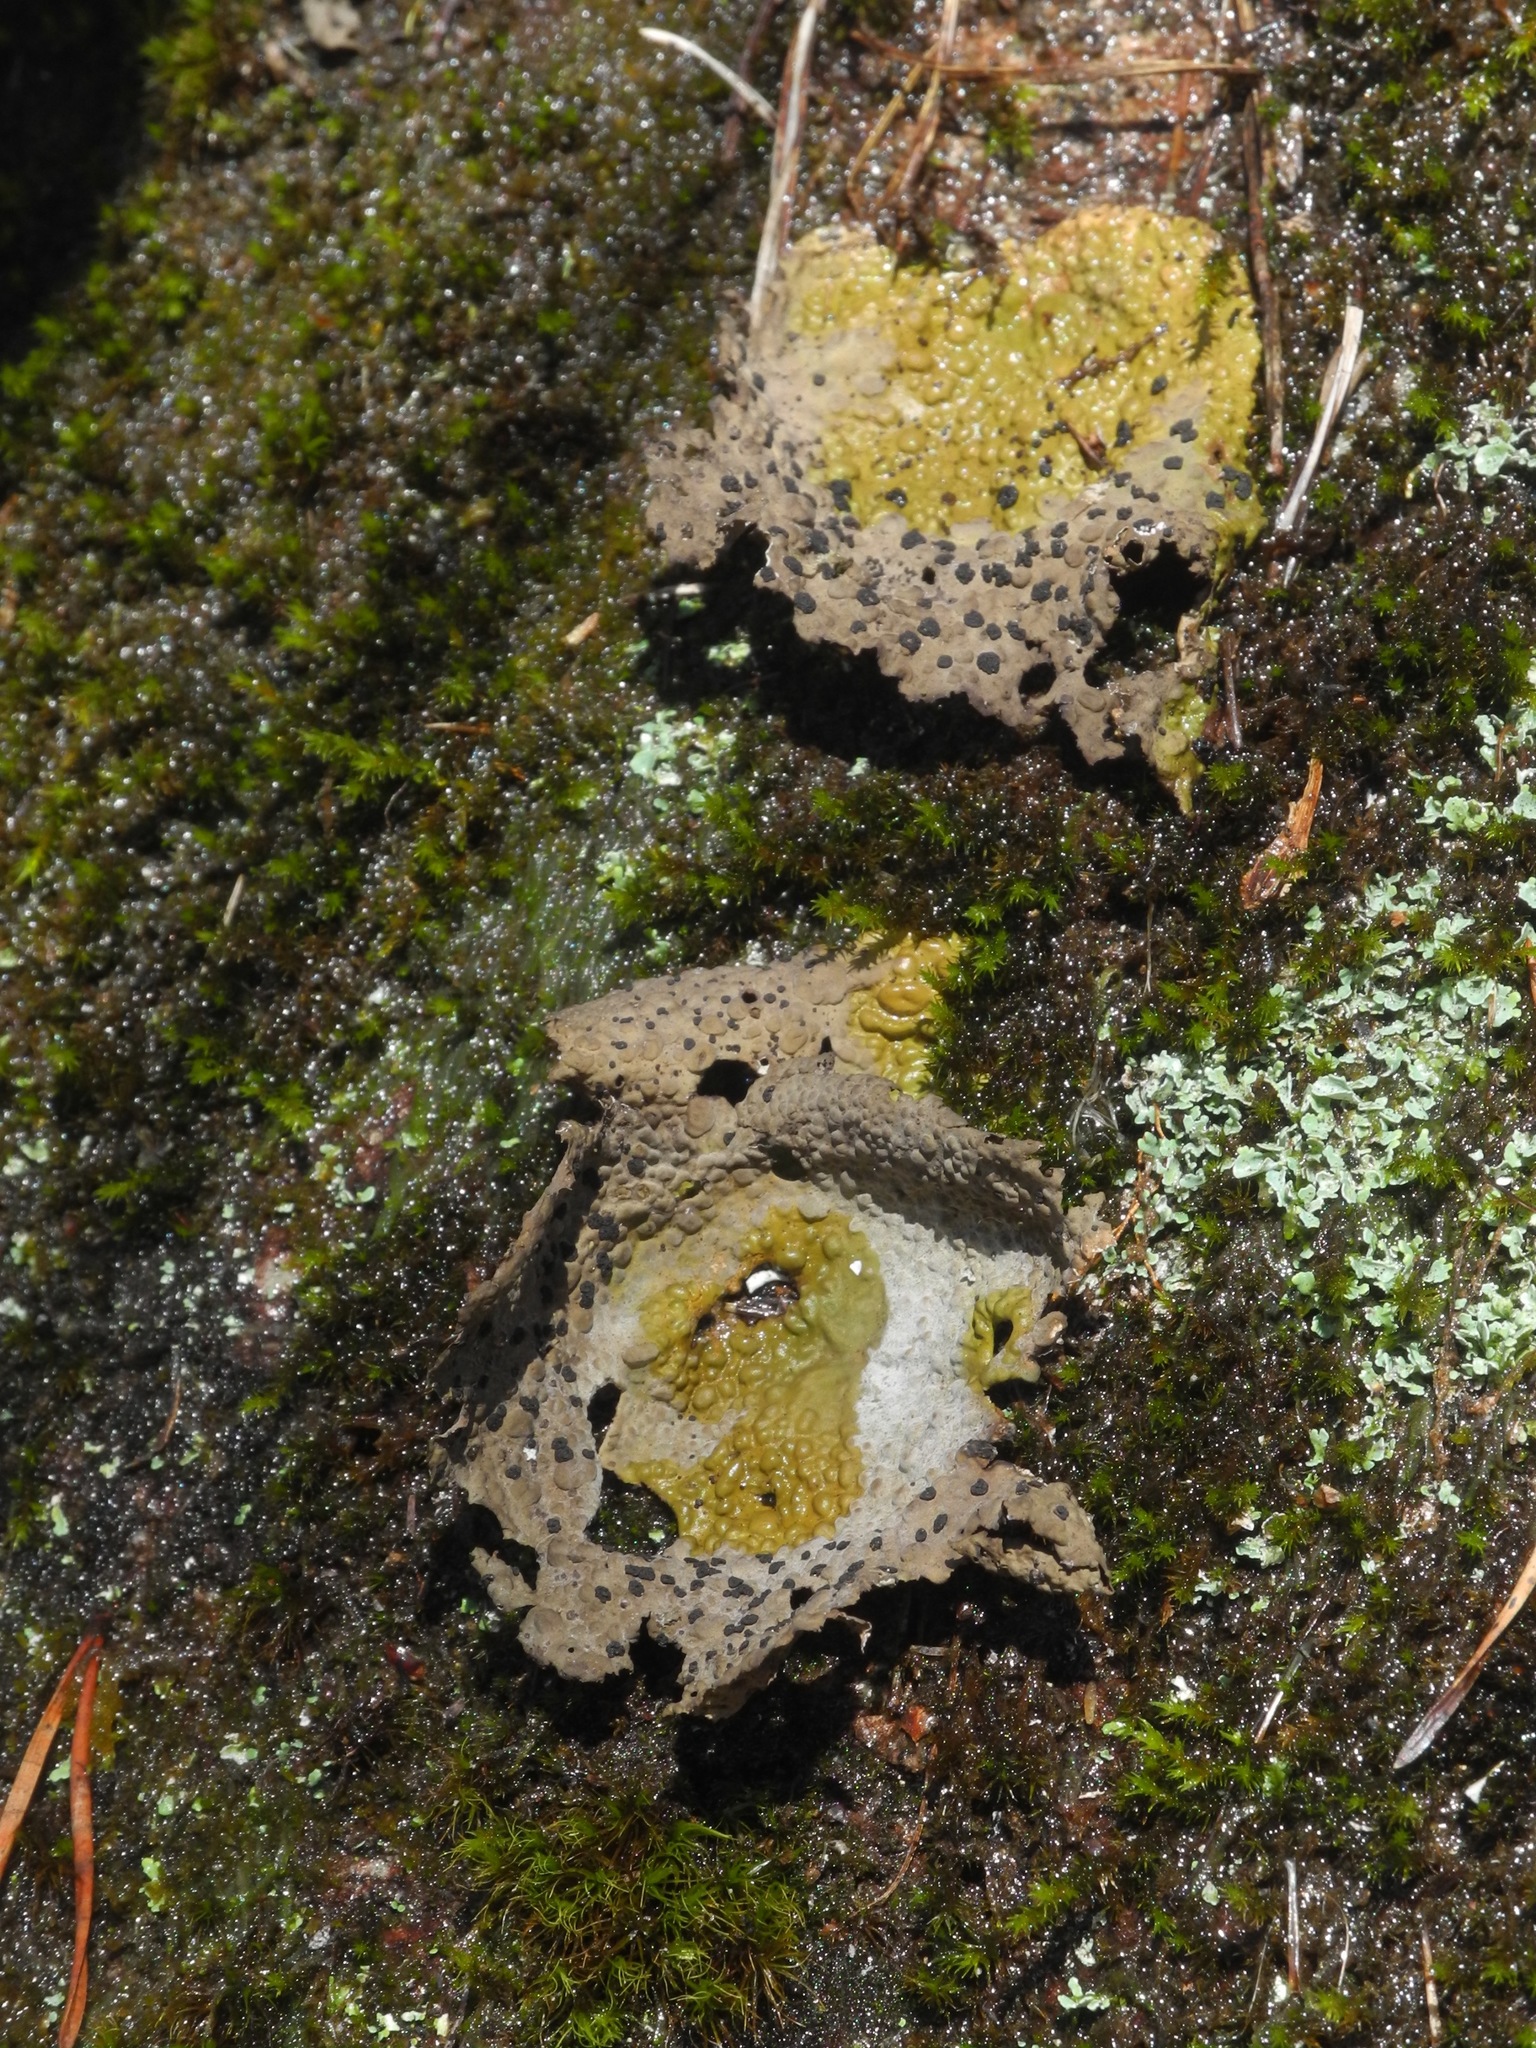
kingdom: Fungi
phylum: Ascomycota
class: Lecanoromycetes
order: Umbilicariales
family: Umbilicariaceae
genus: Lasallia
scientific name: Lasallia papulosa
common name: Common toadskin lichen
